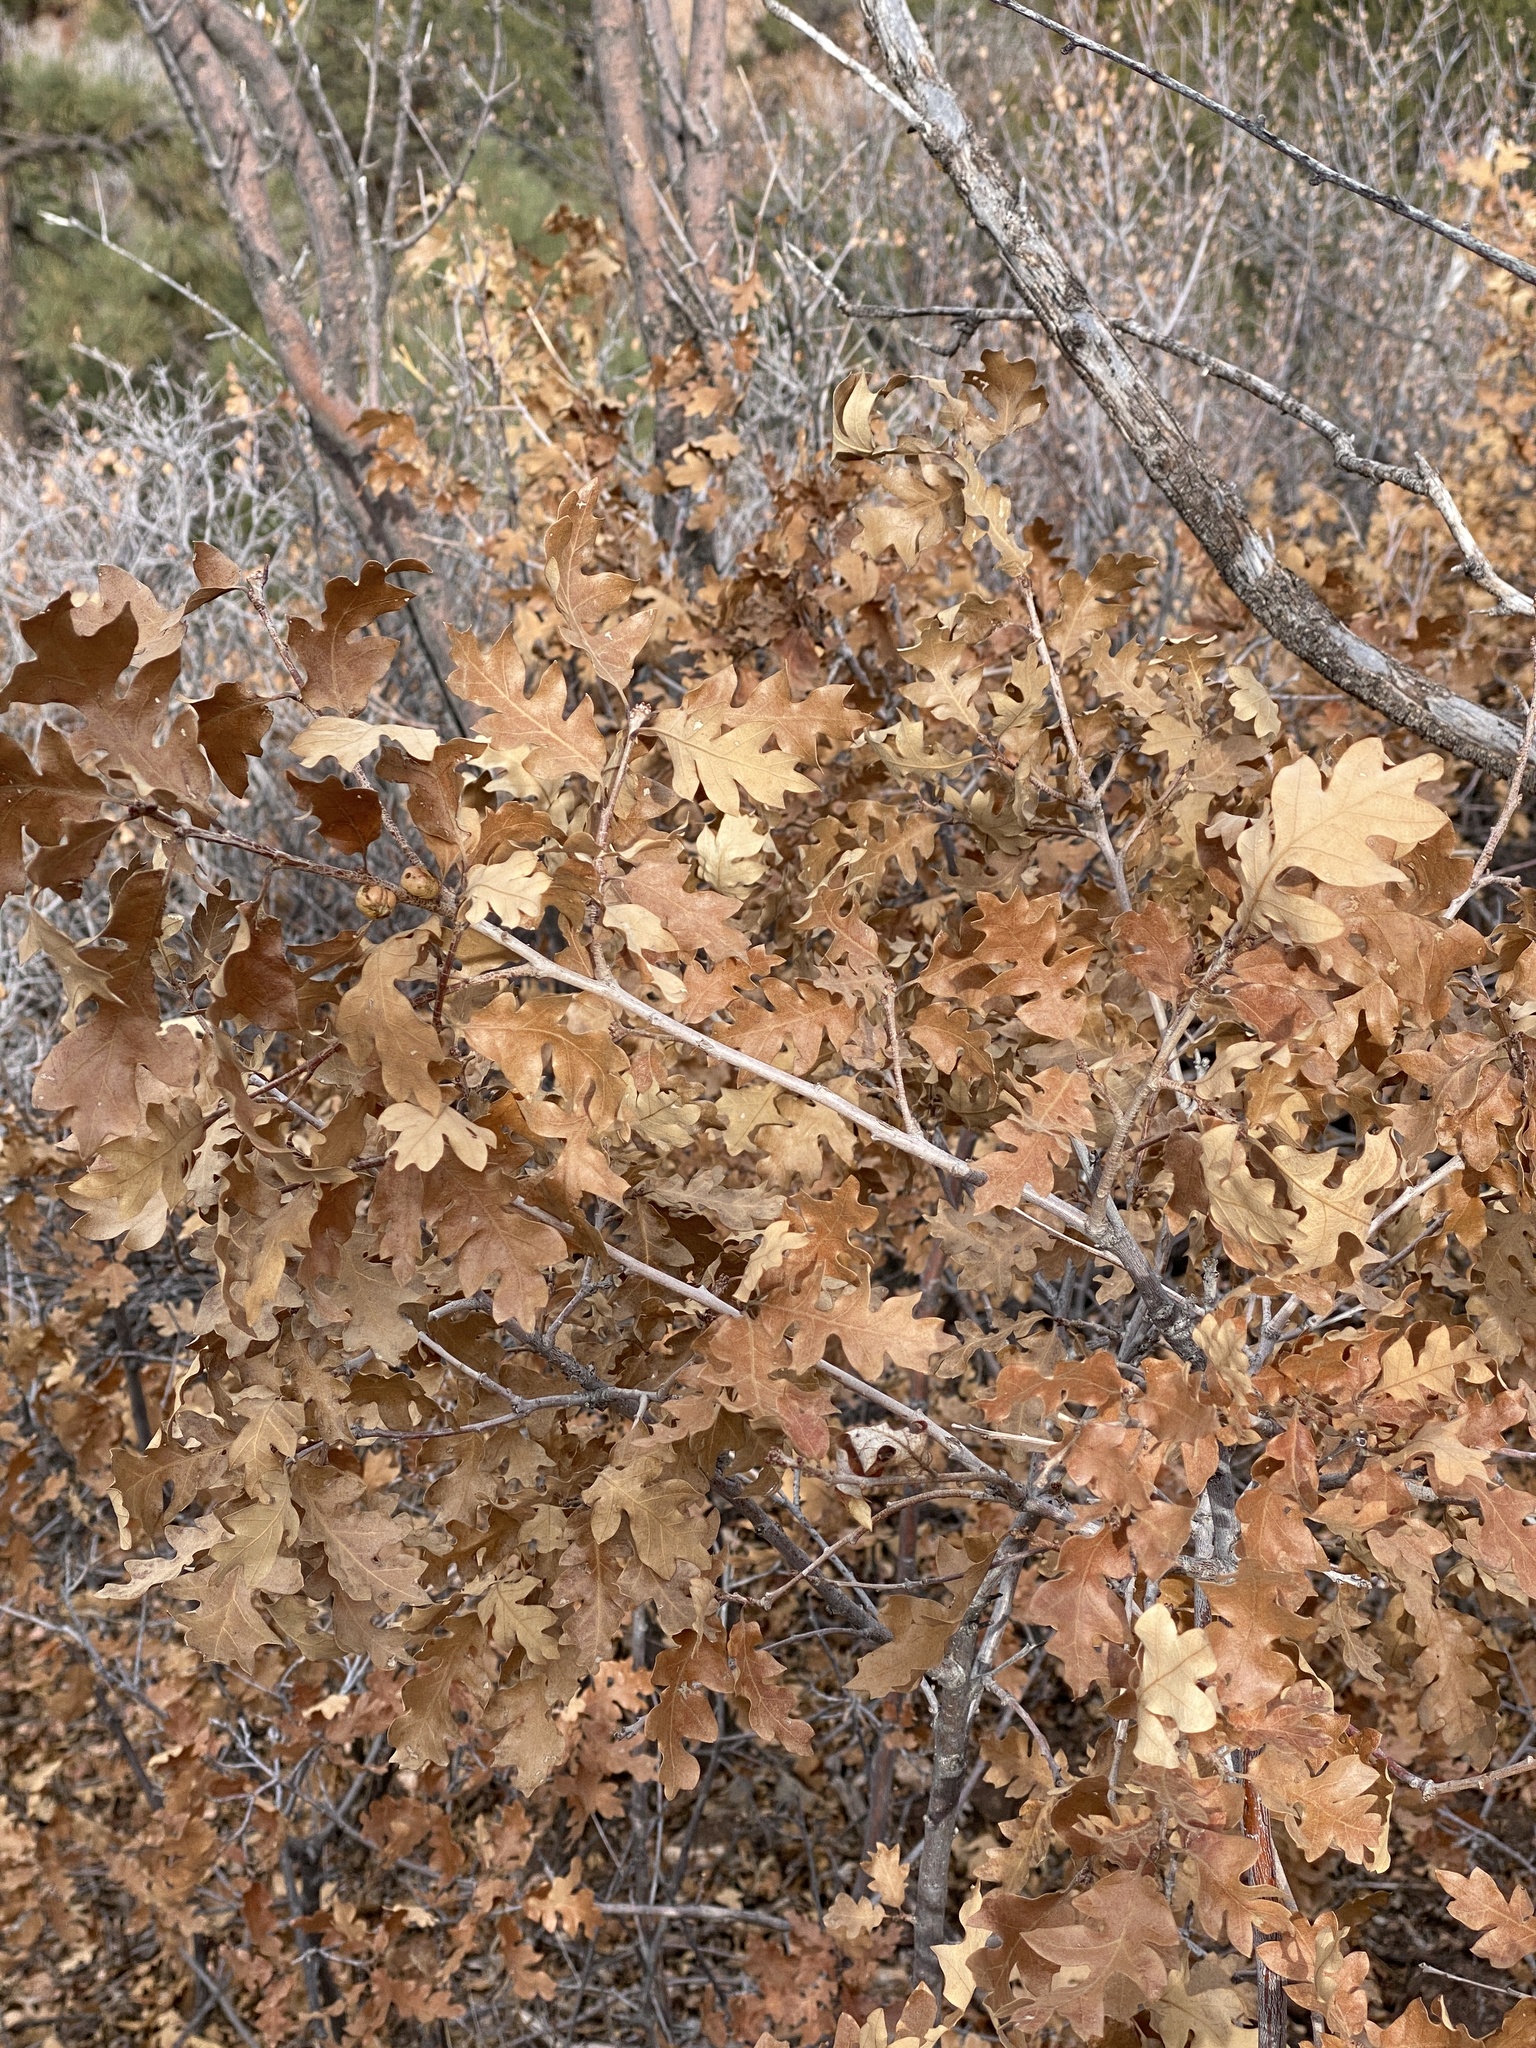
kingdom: Plantae
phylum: Tracheophyta
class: Magnoliopsida
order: Fagales
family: Fagaceae
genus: Quercus
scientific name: Quercus gambelii
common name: Gambel oak
